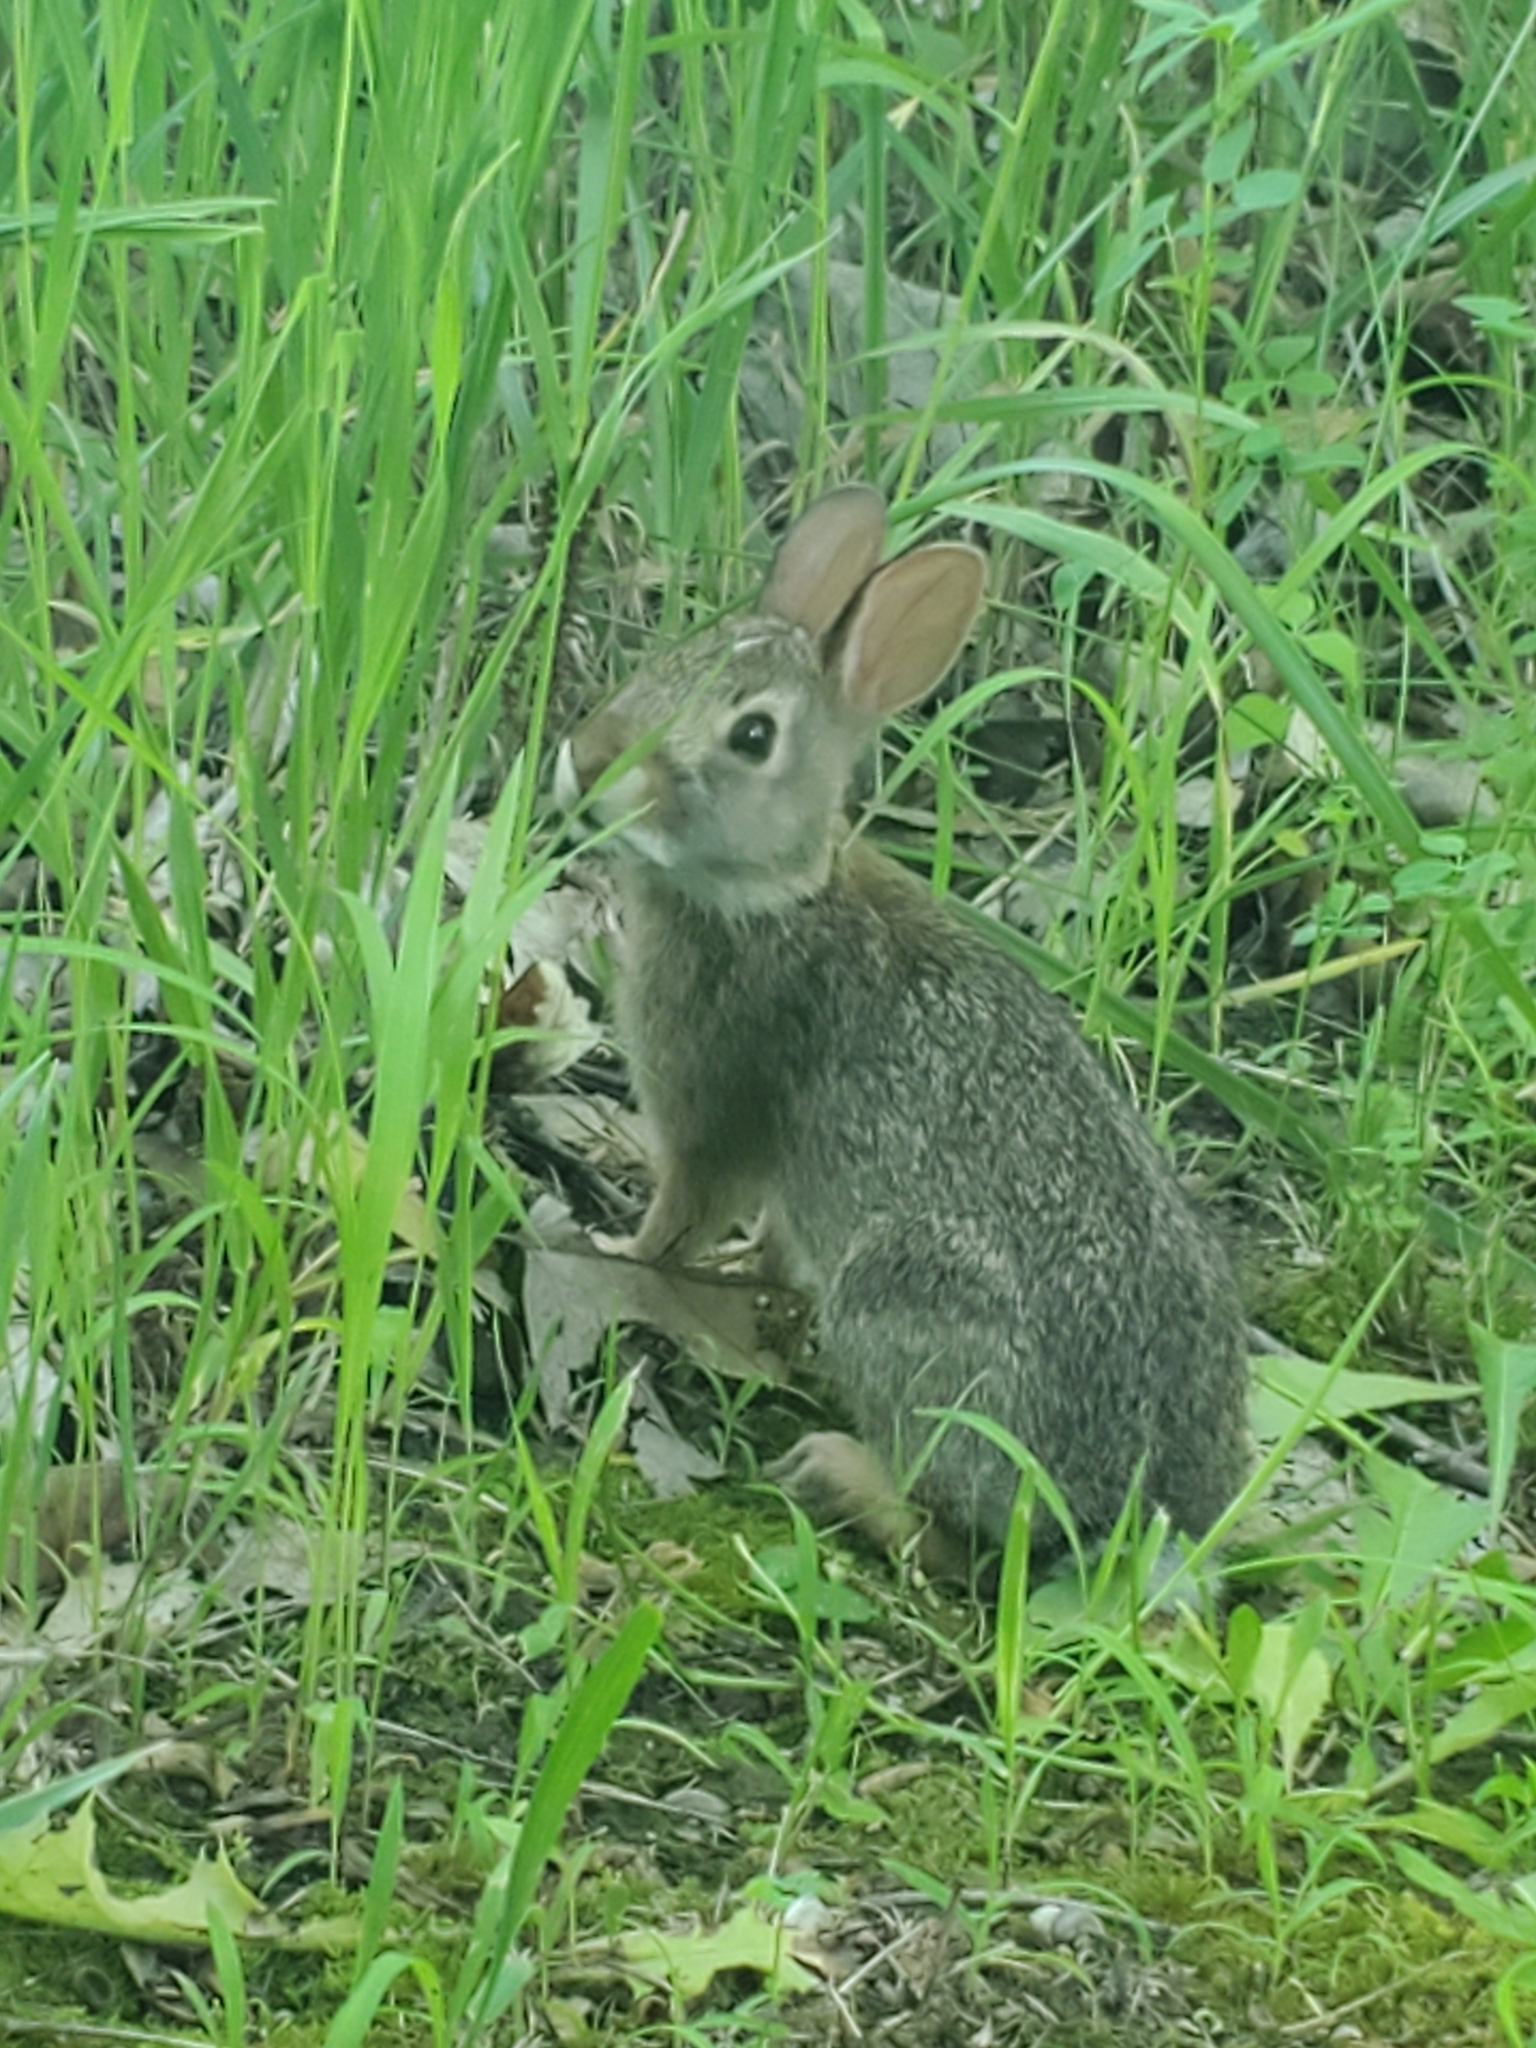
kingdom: Animalia
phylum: Chordata
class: Mammalia
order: Lagomorpha
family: Leporidae
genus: Sylvilagus
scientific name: Sylvilagus floridanus
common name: Eastern cottontail
